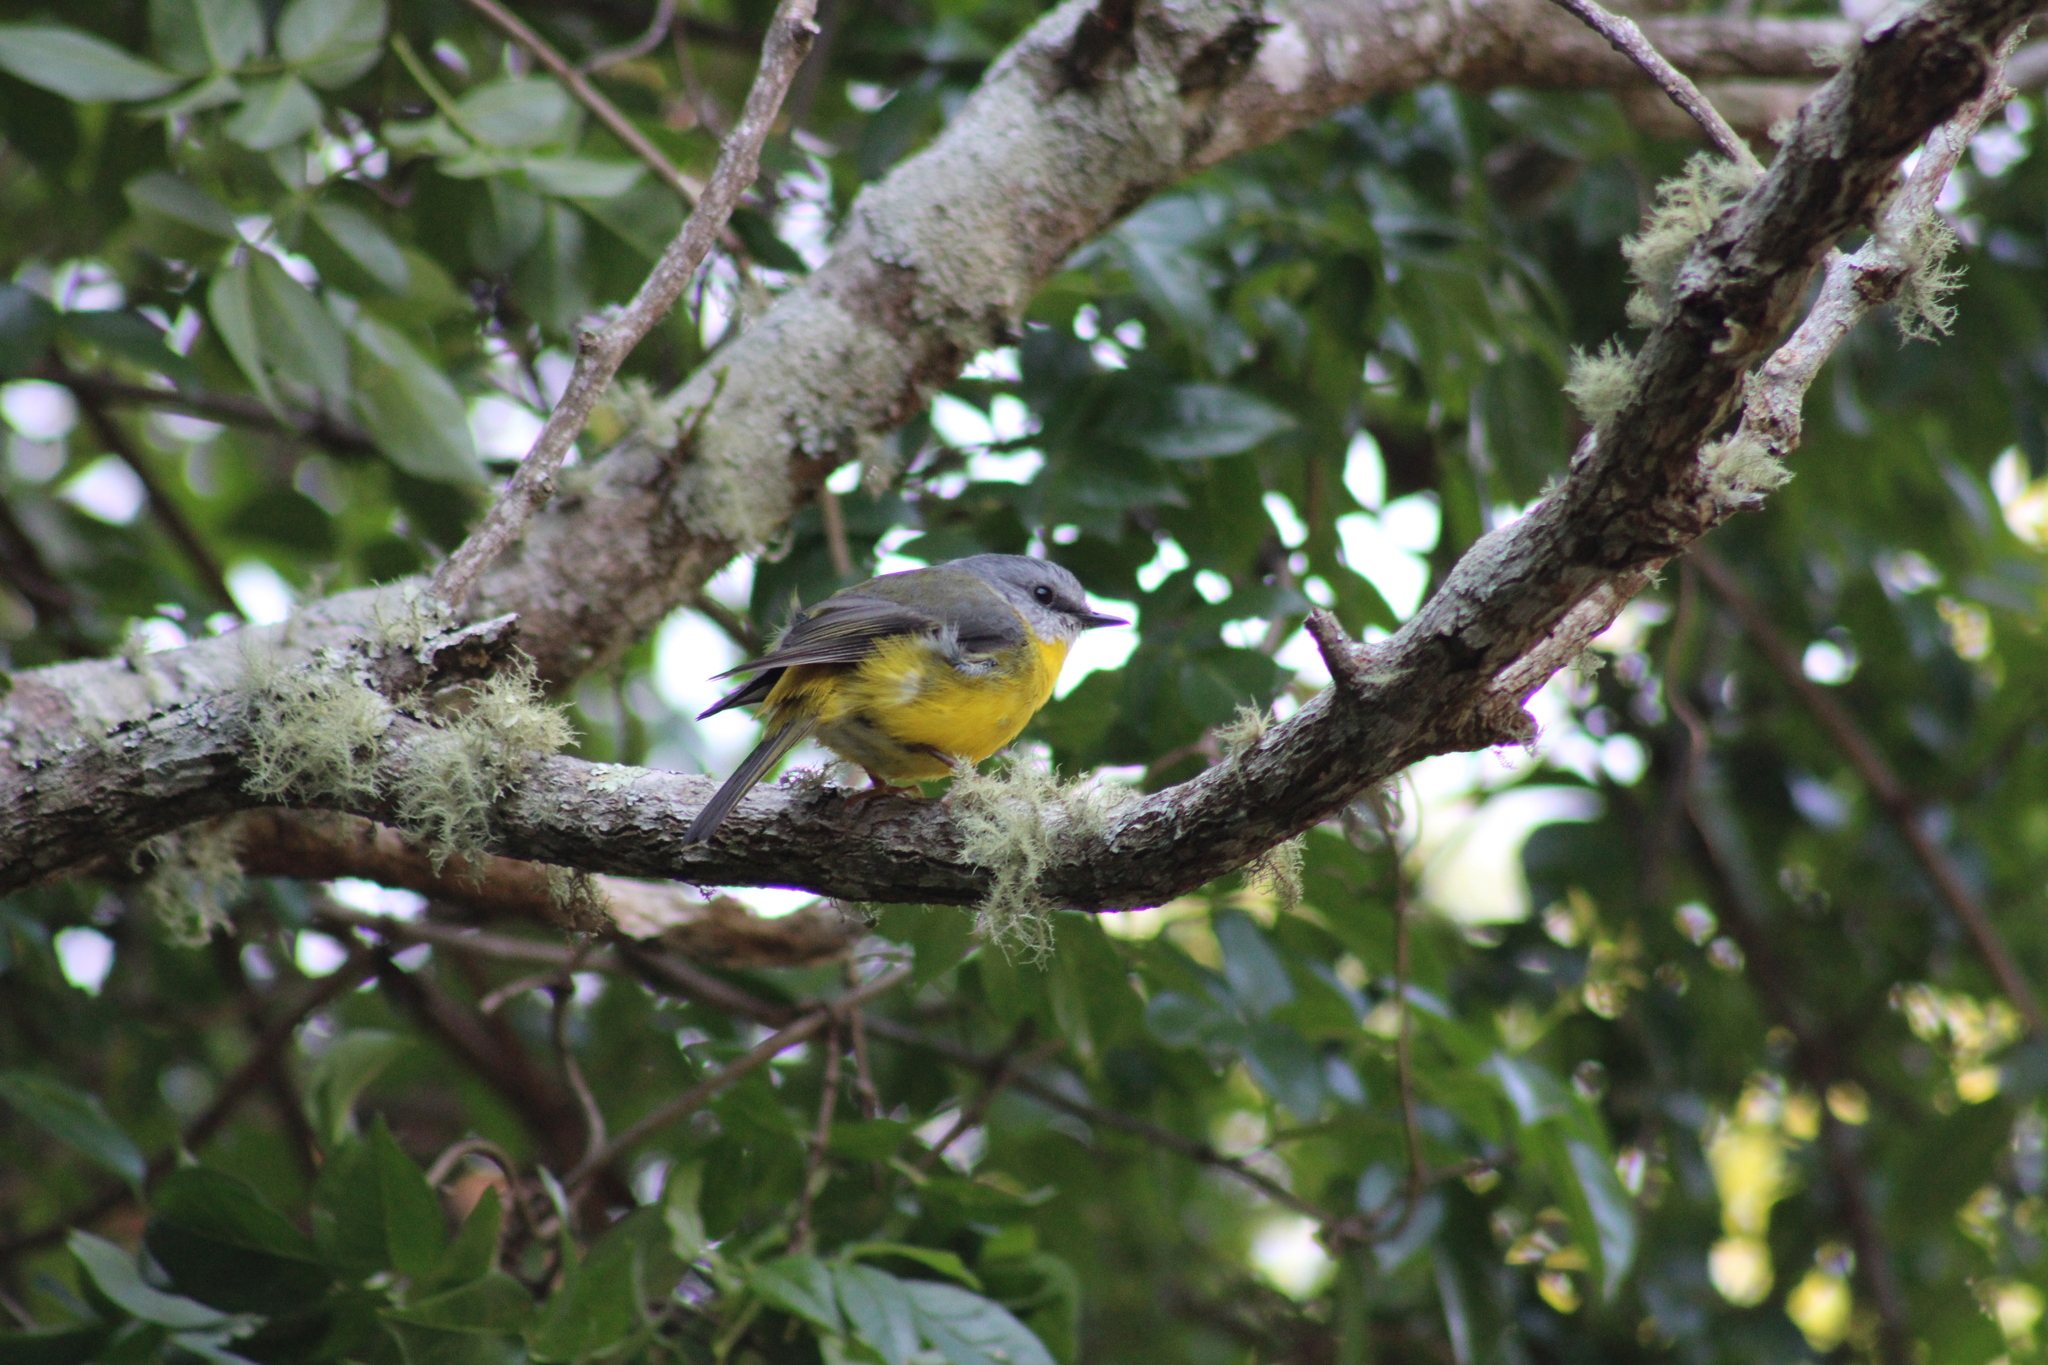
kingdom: Animalia
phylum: Chordata
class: Aves
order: Passeriformes
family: Petroicidae
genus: Eopsaltria
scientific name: Eopsaltria australis
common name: Eastern yellow robin
